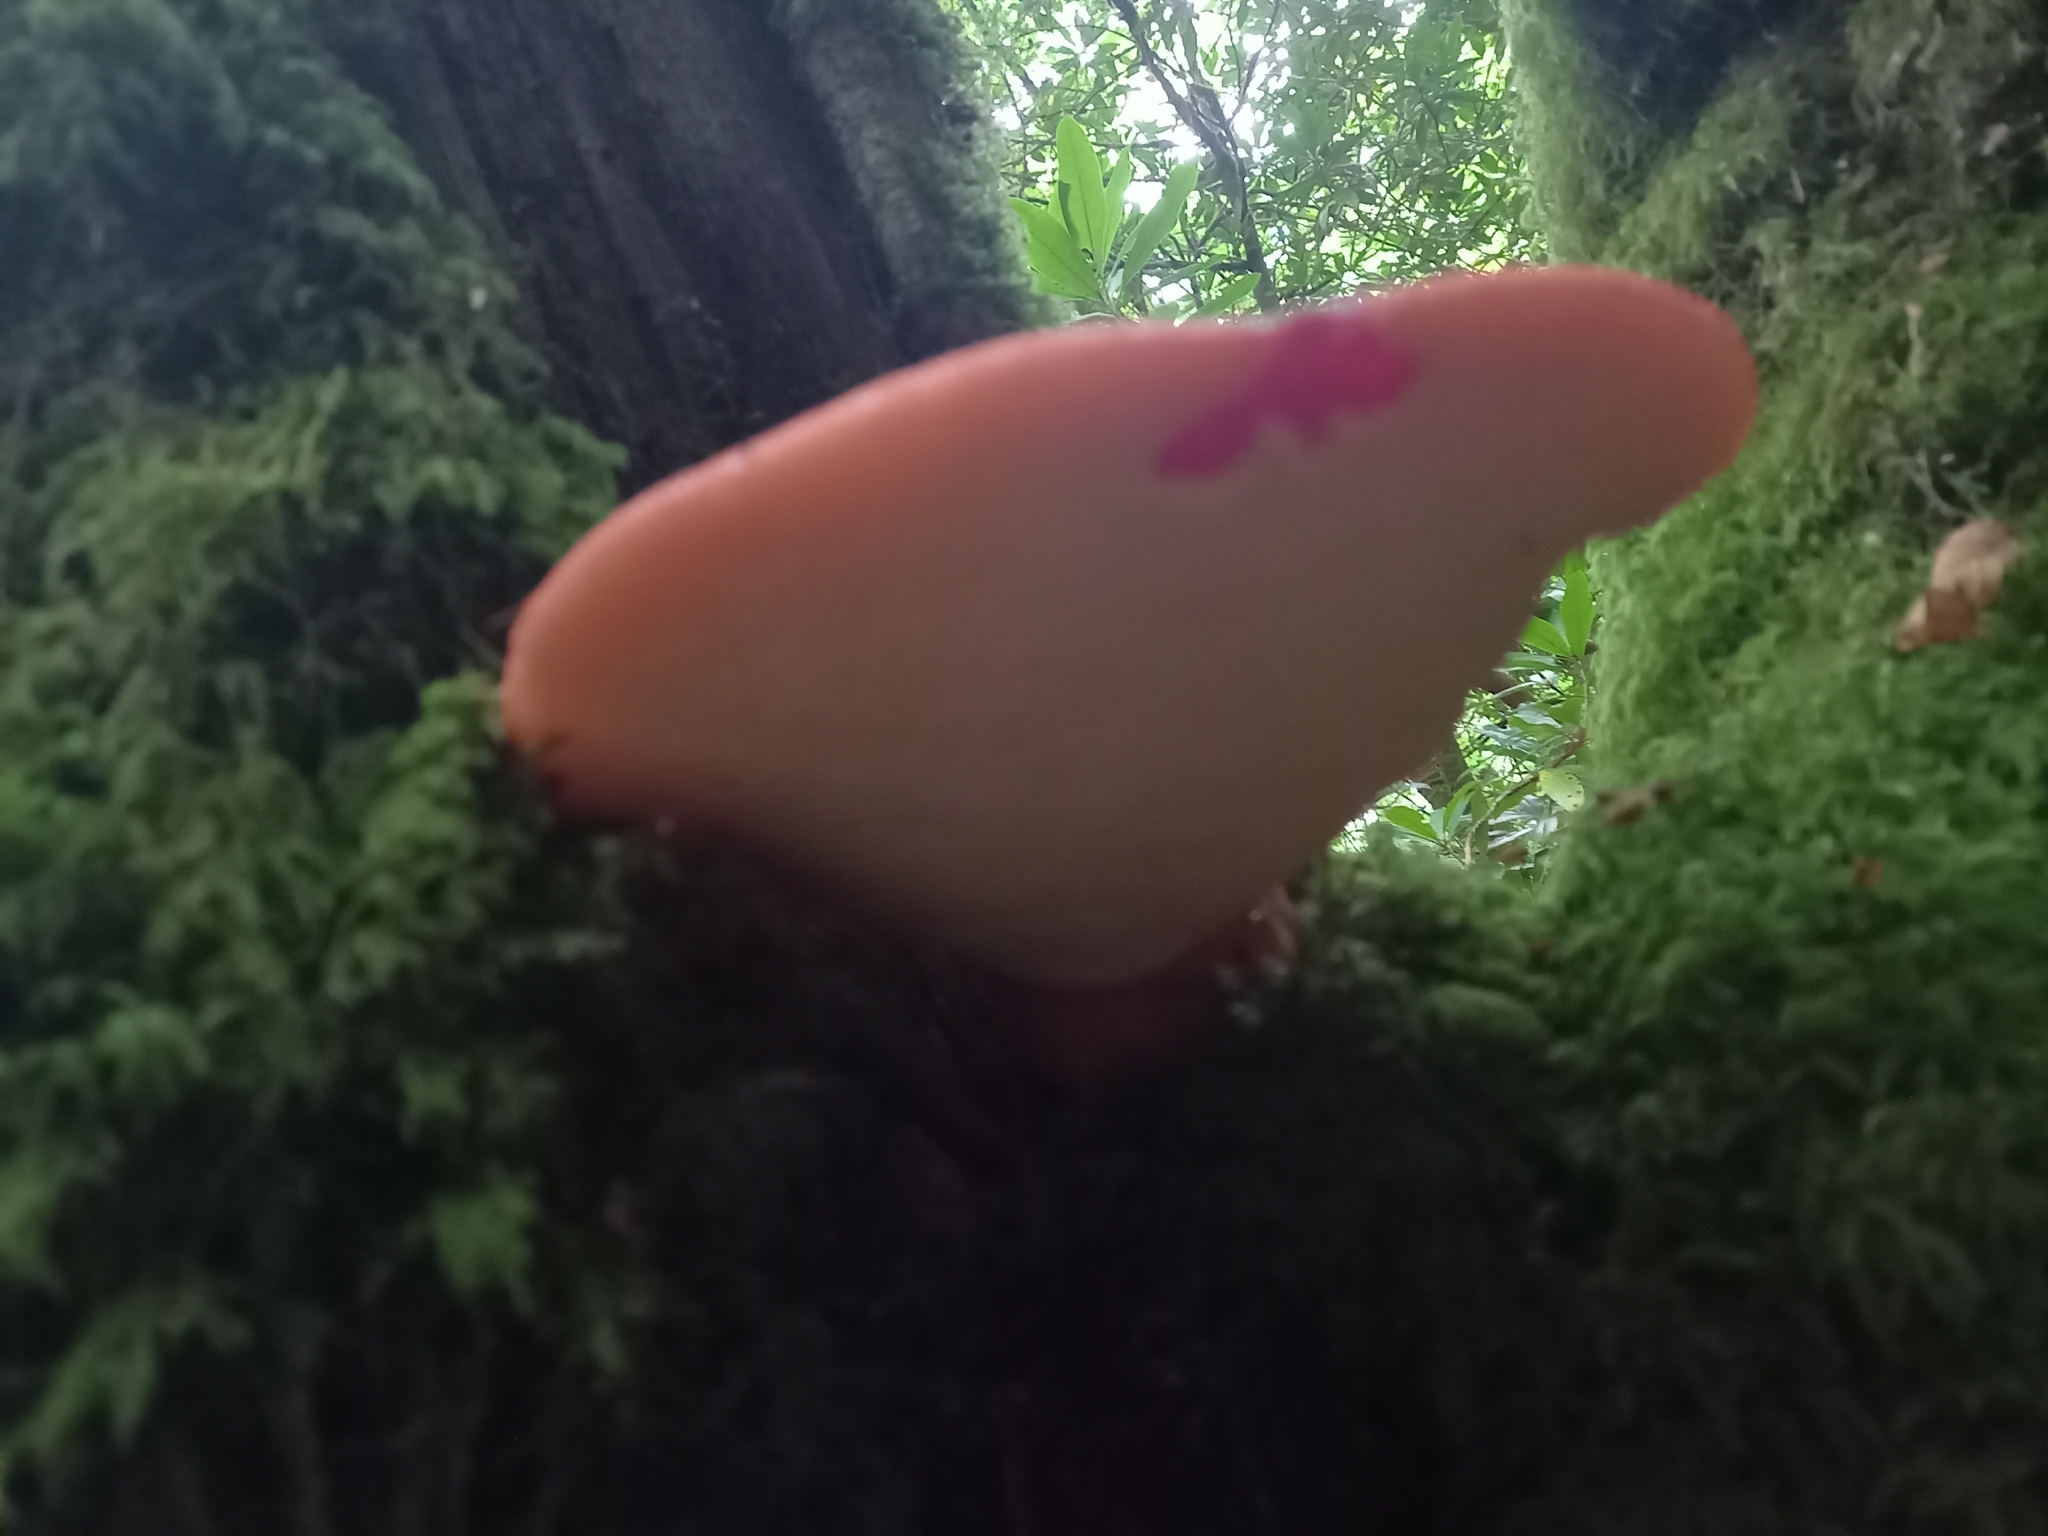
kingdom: Fungi
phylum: Basidiomycota
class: Agaricomycetes
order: Agaricales
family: Fistulinaceae
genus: Fistulina
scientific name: Fistulina hepatica
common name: Beef-steak fungus
